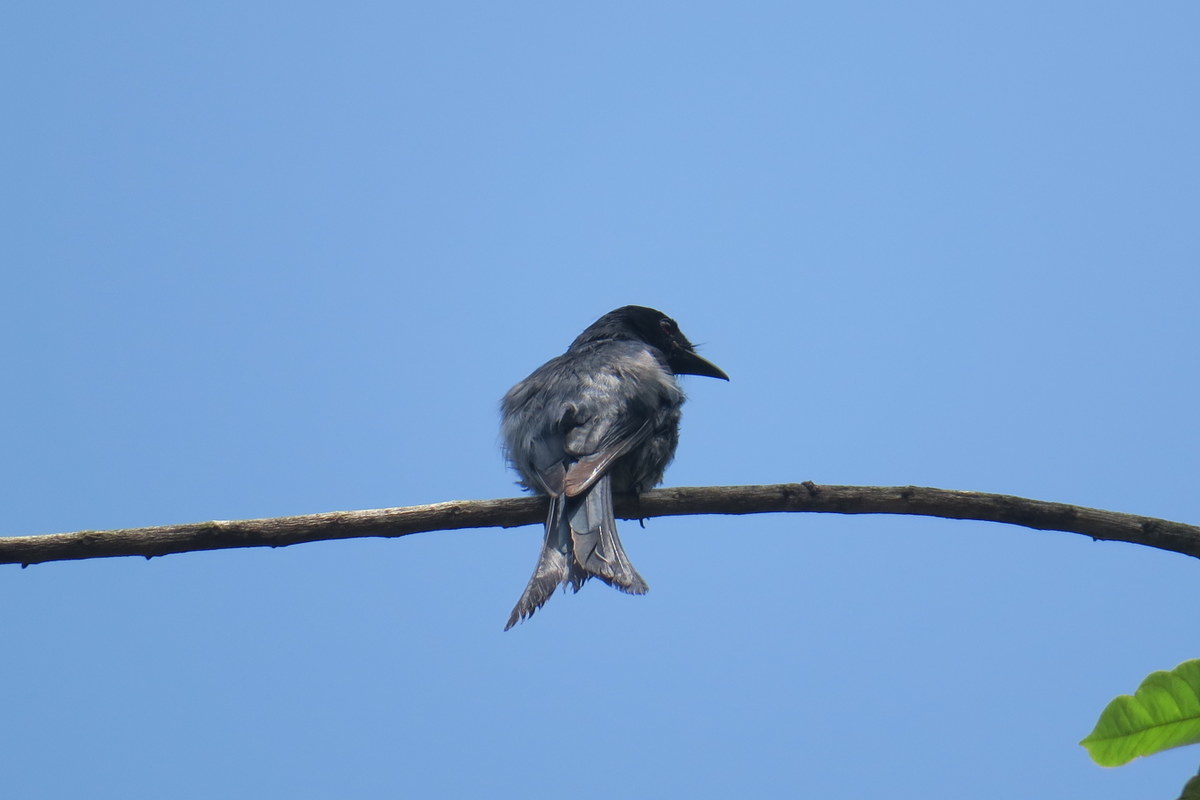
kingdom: Animalia
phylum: Chordata
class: Aves
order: Passeriformes
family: Dicruridae
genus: Dicrurus
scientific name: Dicrurus caerulescens
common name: White-bellied drongo
